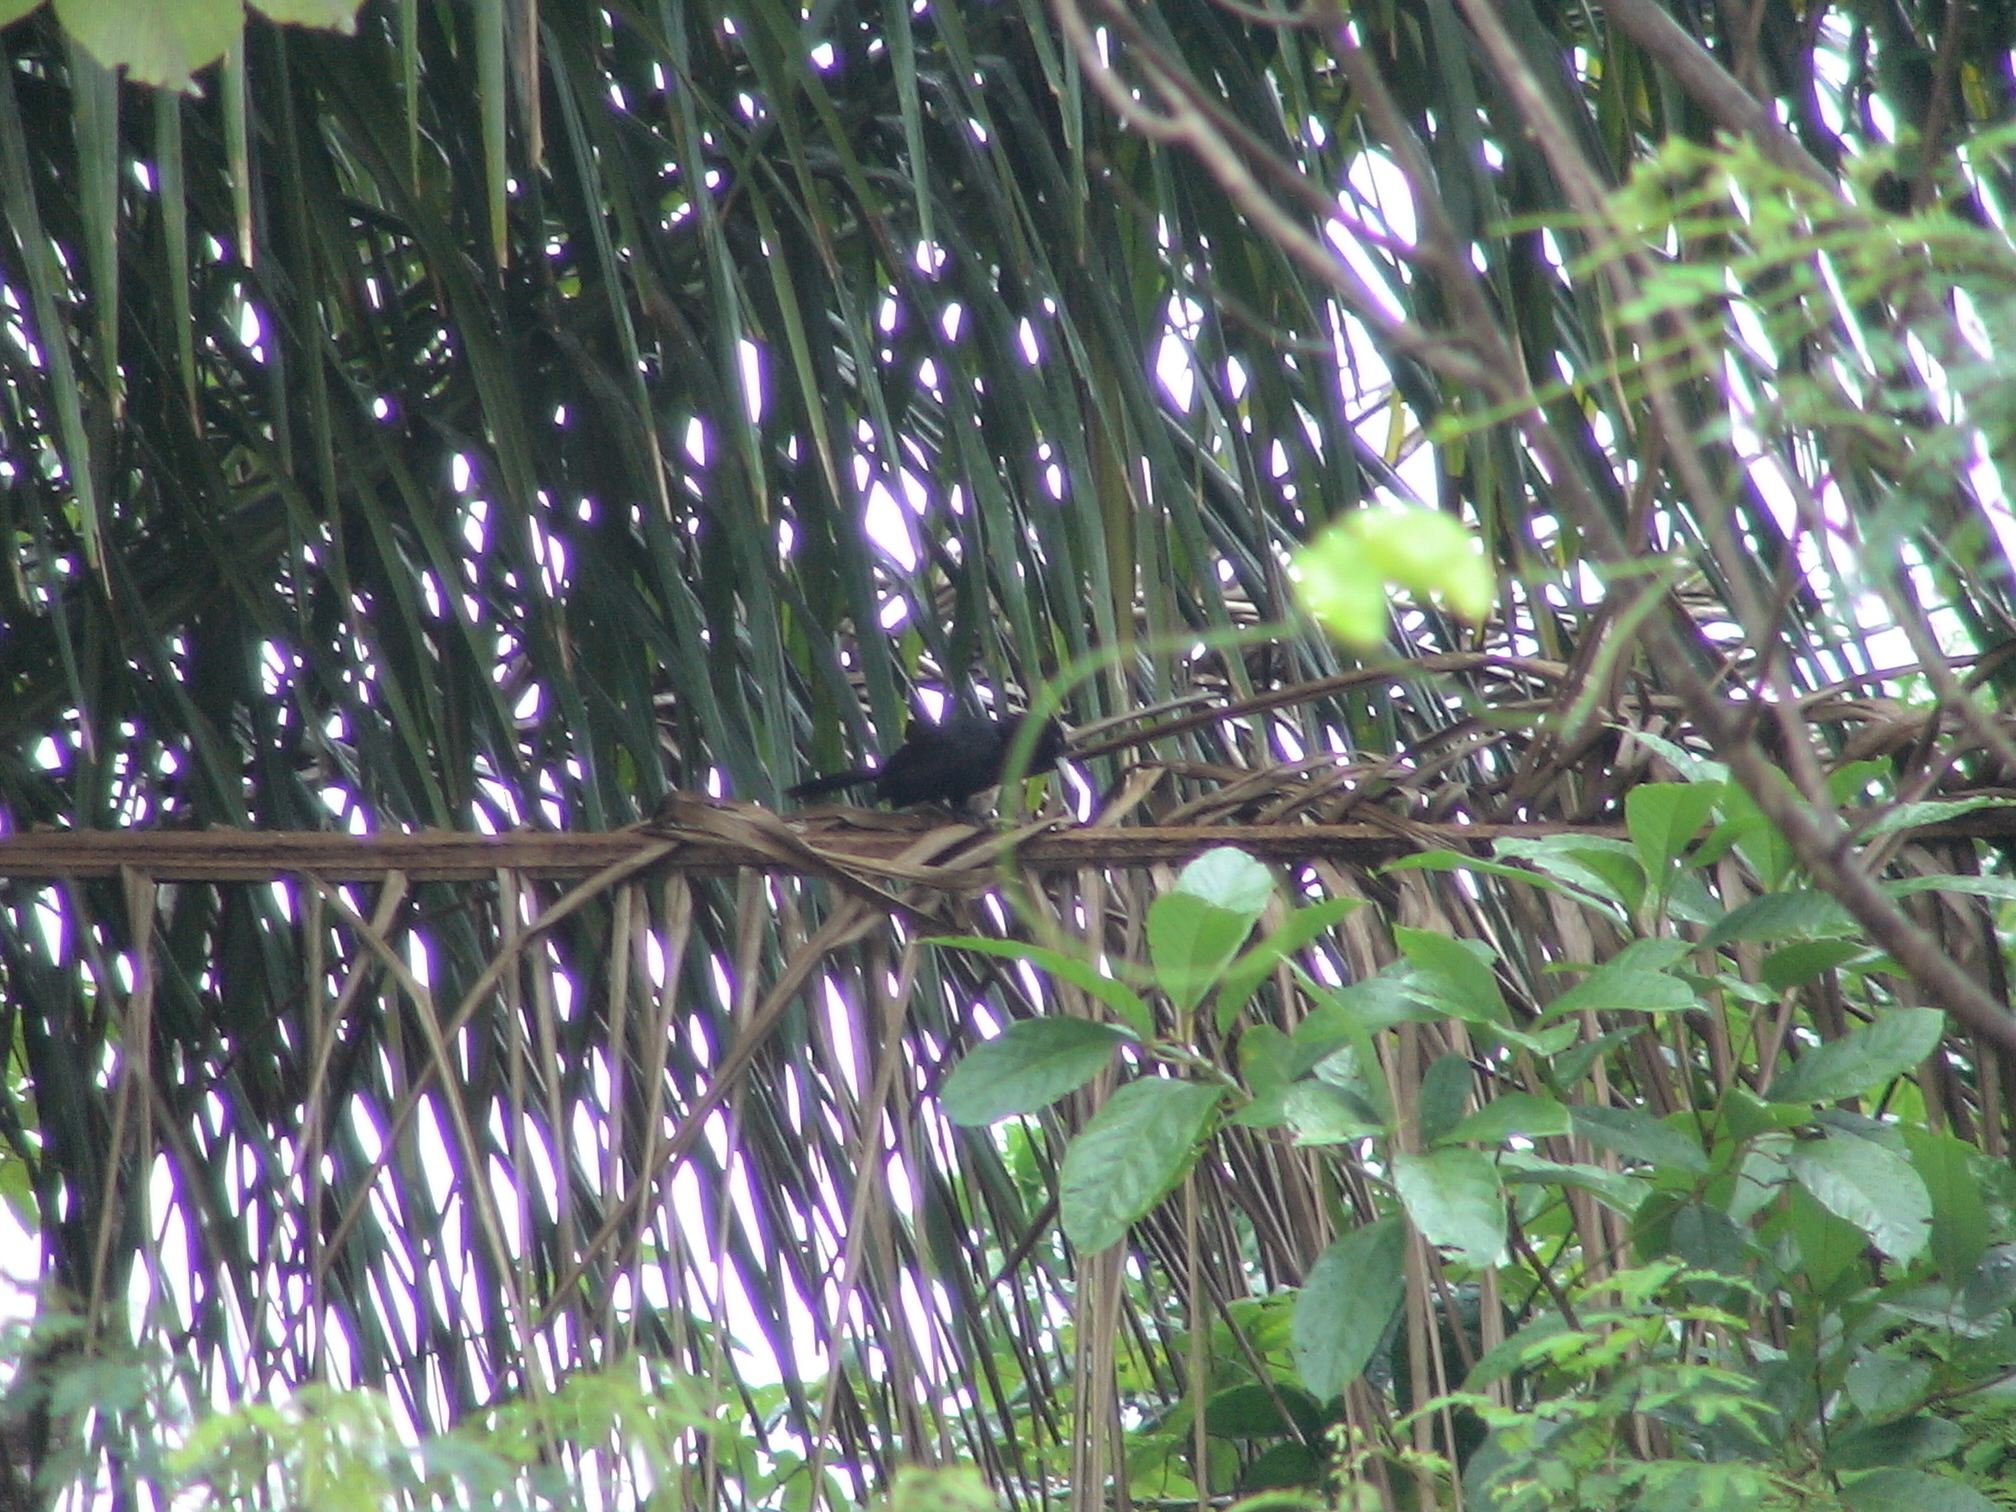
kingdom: Animalia
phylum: Chordata
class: Aves
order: Passeriformes
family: Icteridae
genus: Cacicus
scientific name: Cacicus solitarius
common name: Solitary cacique
